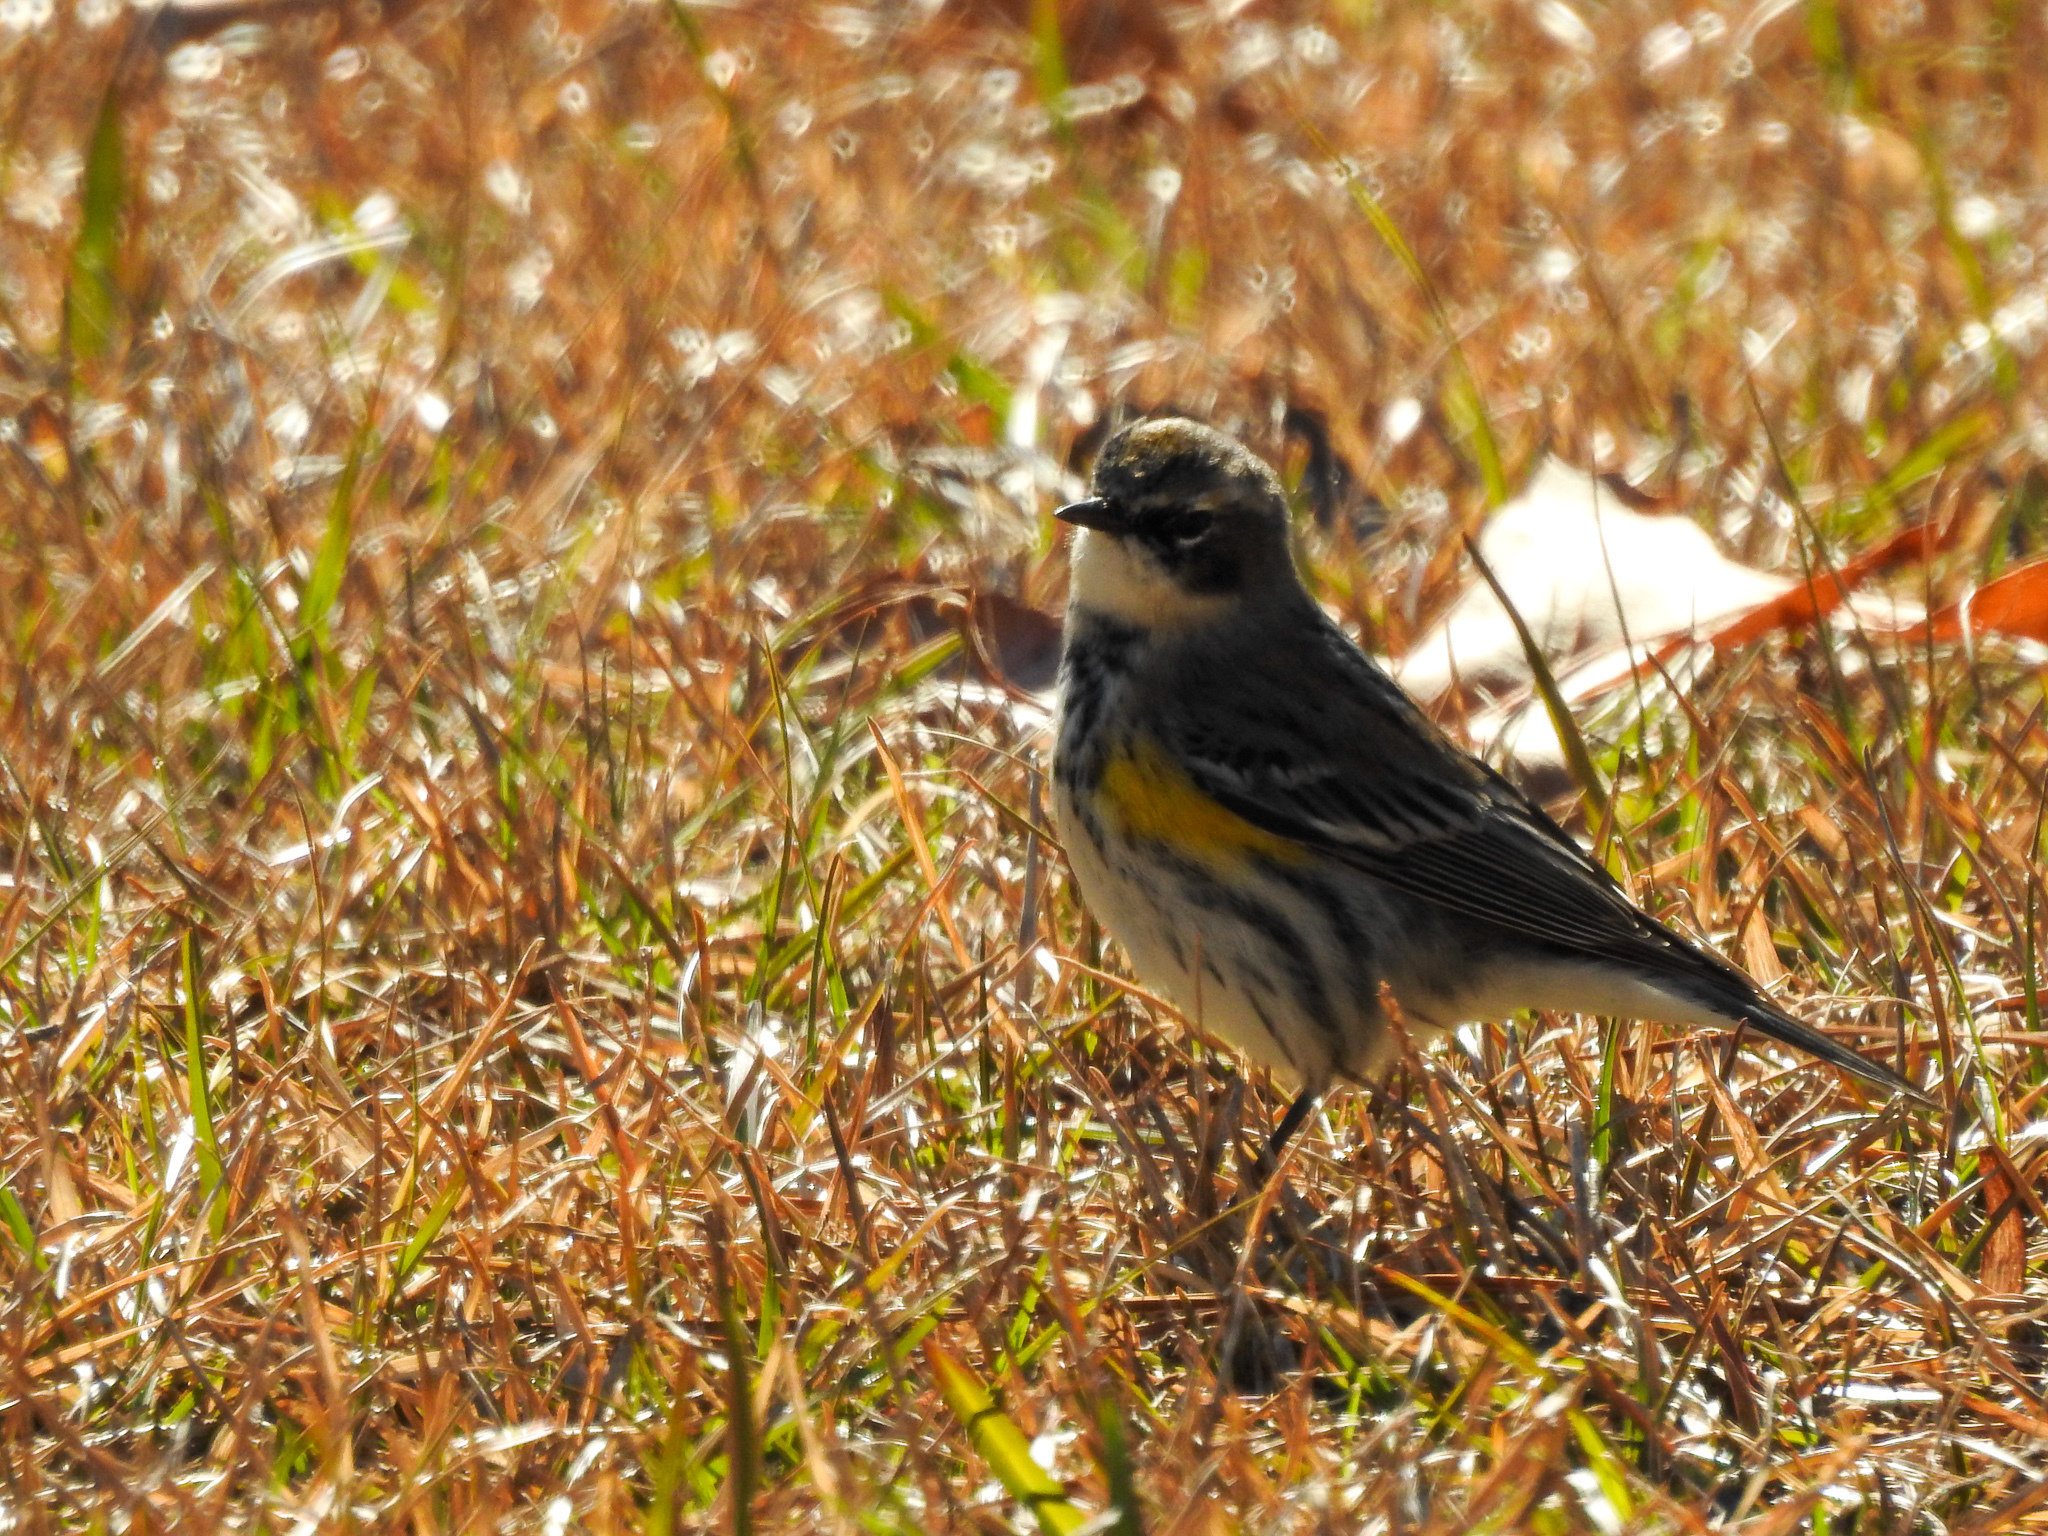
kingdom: Animalia
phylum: Chordata
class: Aves
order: Passeriformes
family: Parulidae
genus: Setophaga
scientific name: Setophaga coronata
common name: Myrtle warbler
